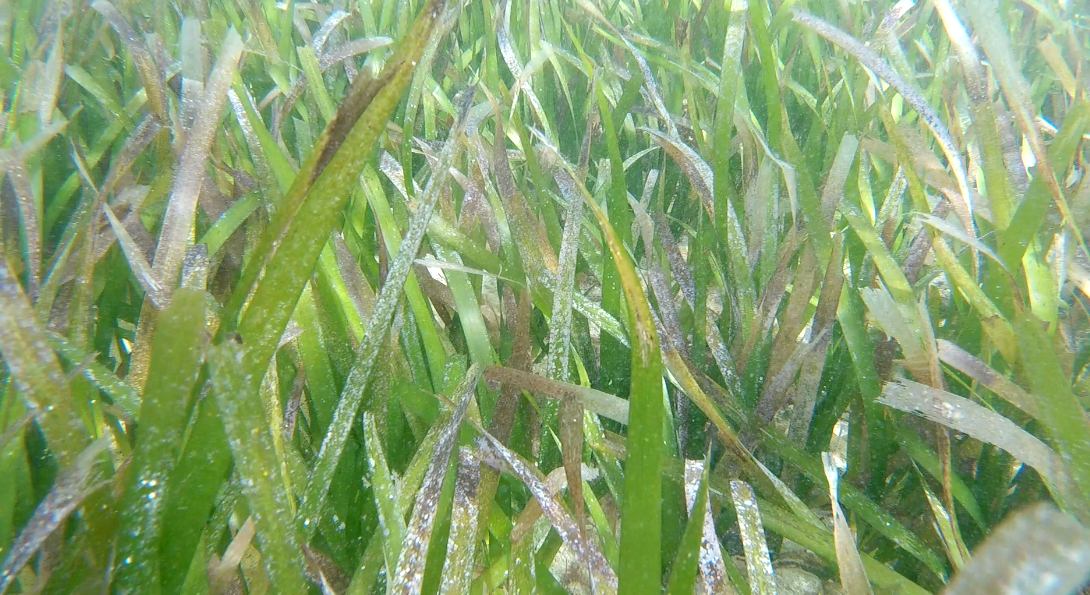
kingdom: Plantae
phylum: Tracheophyta
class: Liliopsida
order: Alismatales
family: Hydrocharitaceae
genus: Thalassia
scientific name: Thalassia testudinum
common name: Species code: tt
